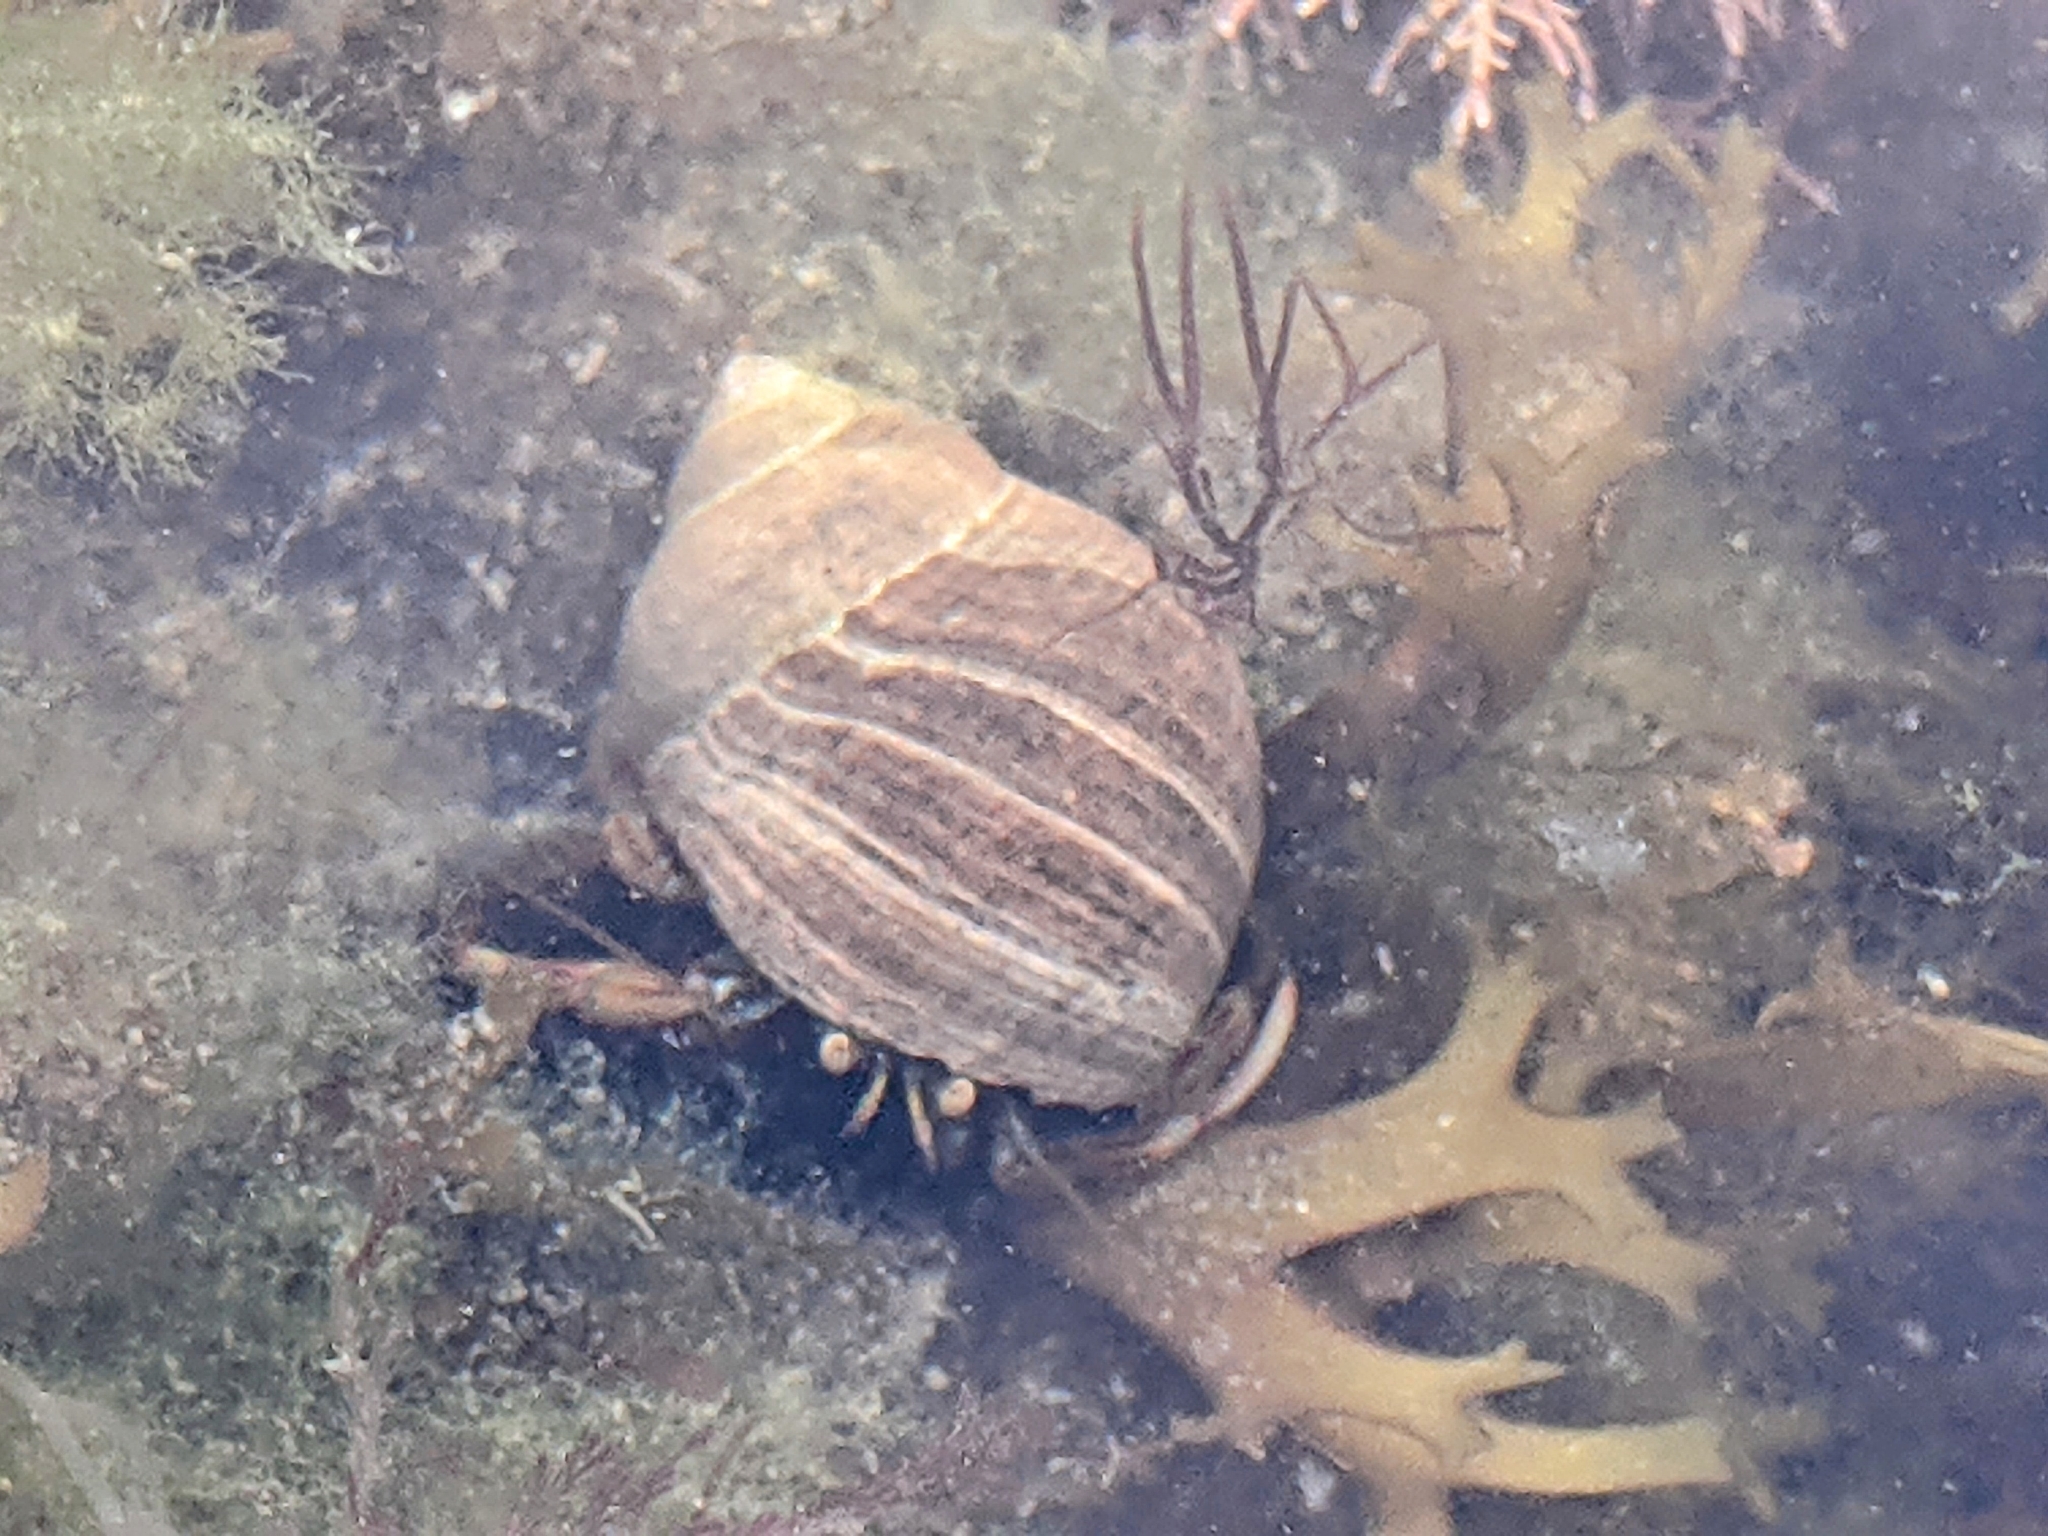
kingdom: Animalia
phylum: Arthropoda
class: Malacostraca
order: Decapoda
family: Paguridae
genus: Pagurus
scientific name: Pagurus bernhardus
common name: Hermit crab
